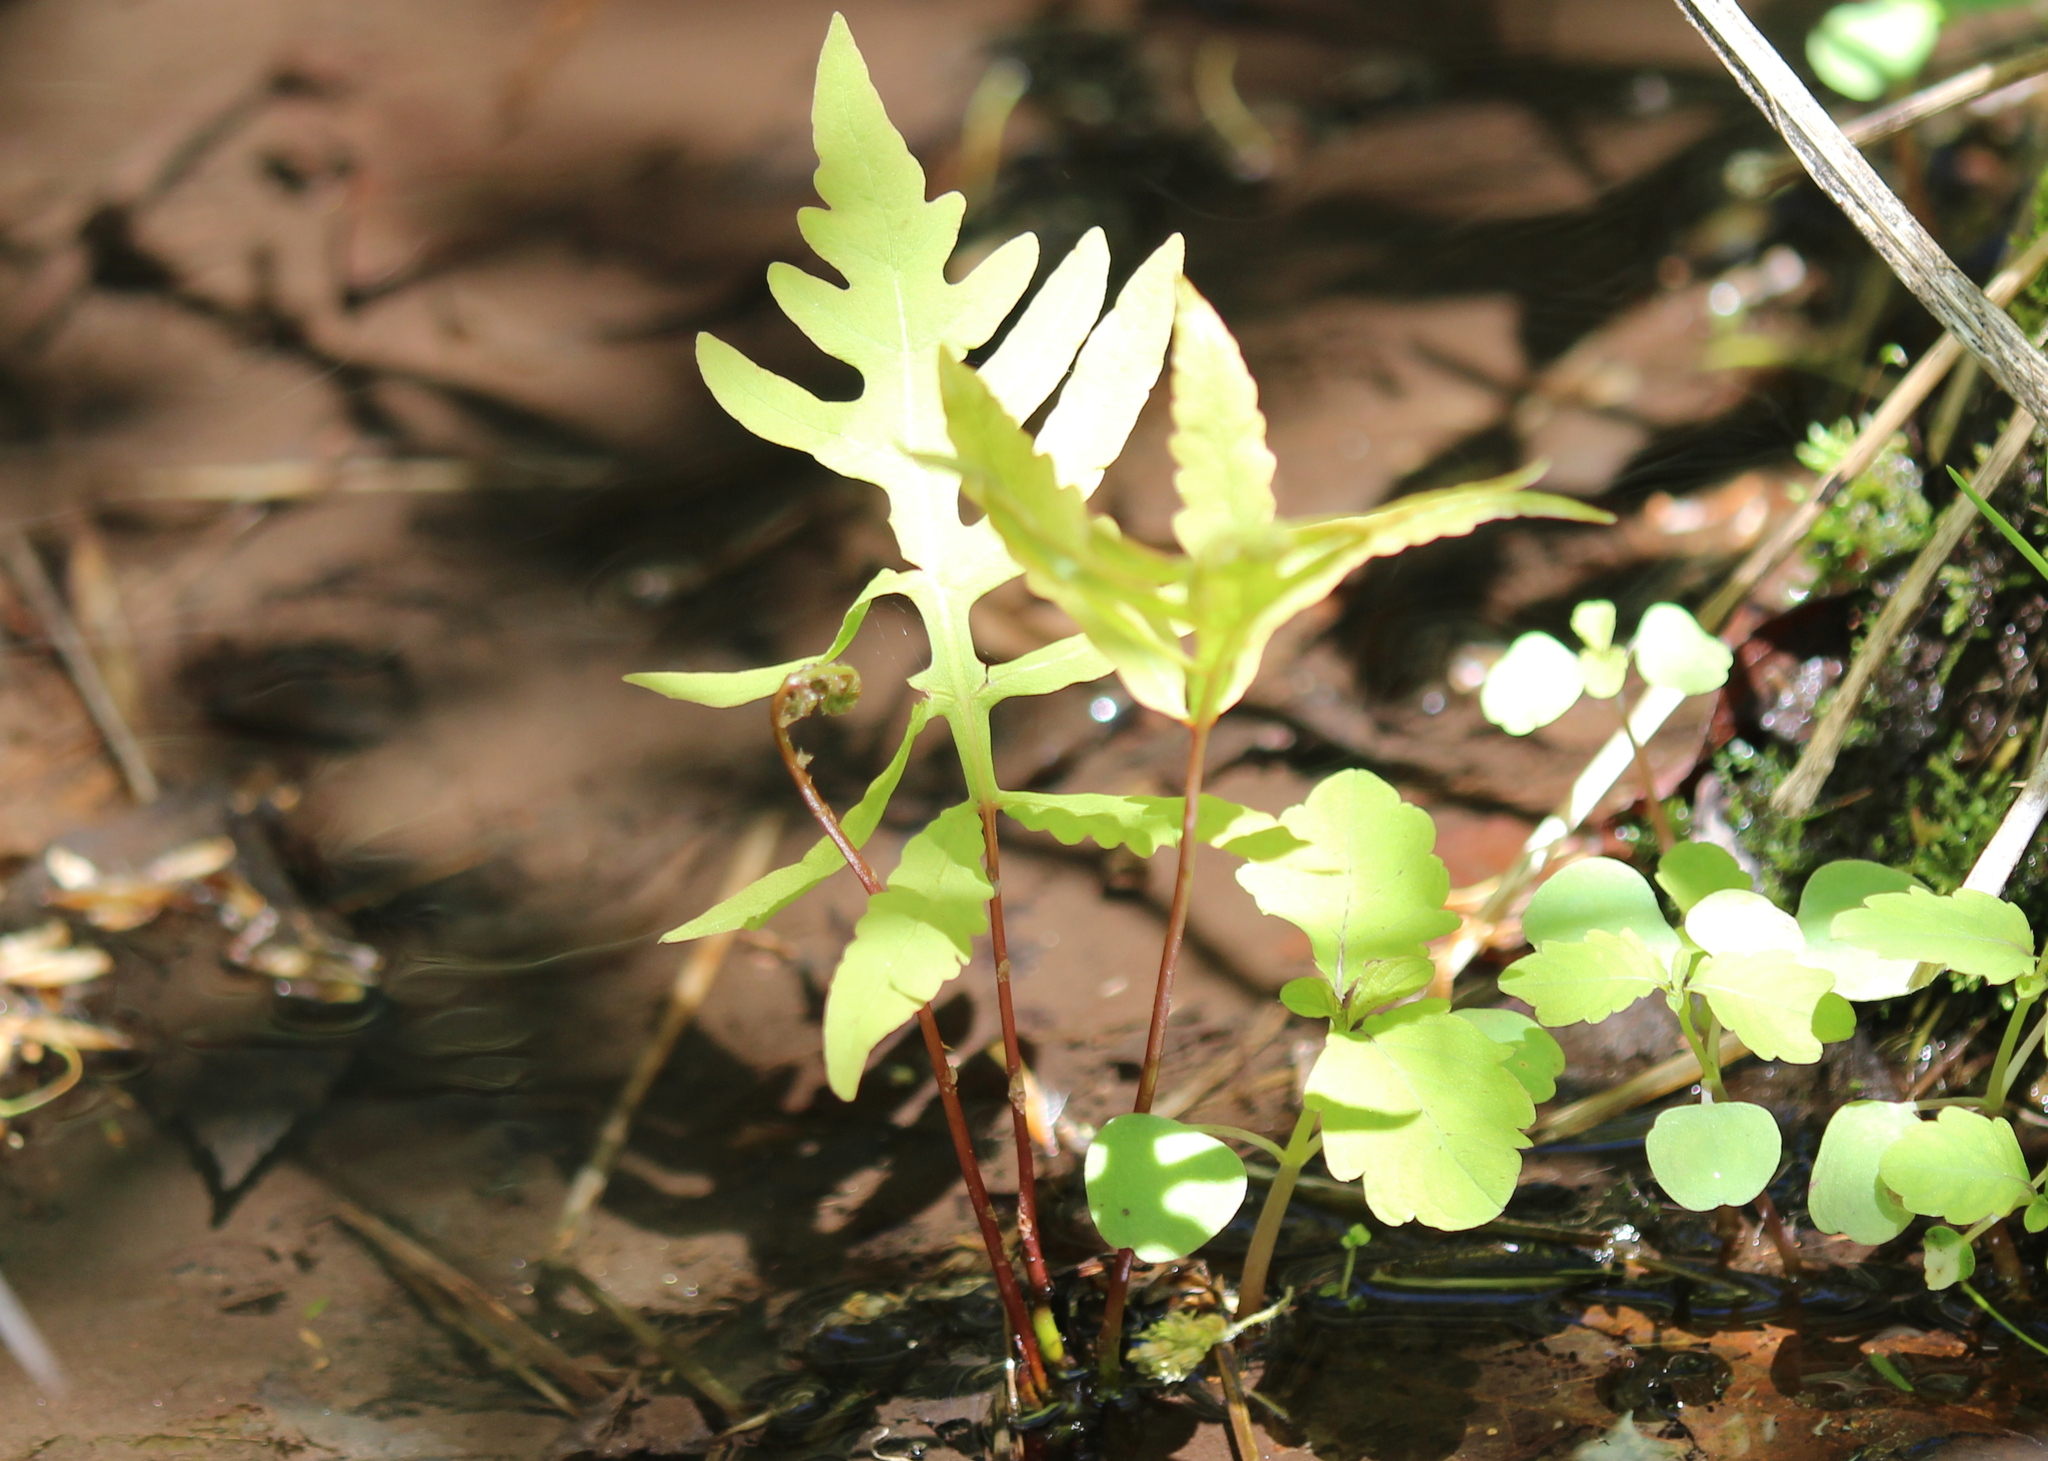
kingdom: Plantae
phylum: Tracheophyta
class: Polypodiopsida
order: Polypodiales
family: Onocleaceae
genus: Onoclea
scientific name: Onoclea sensibilis
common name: Sensitive fern
